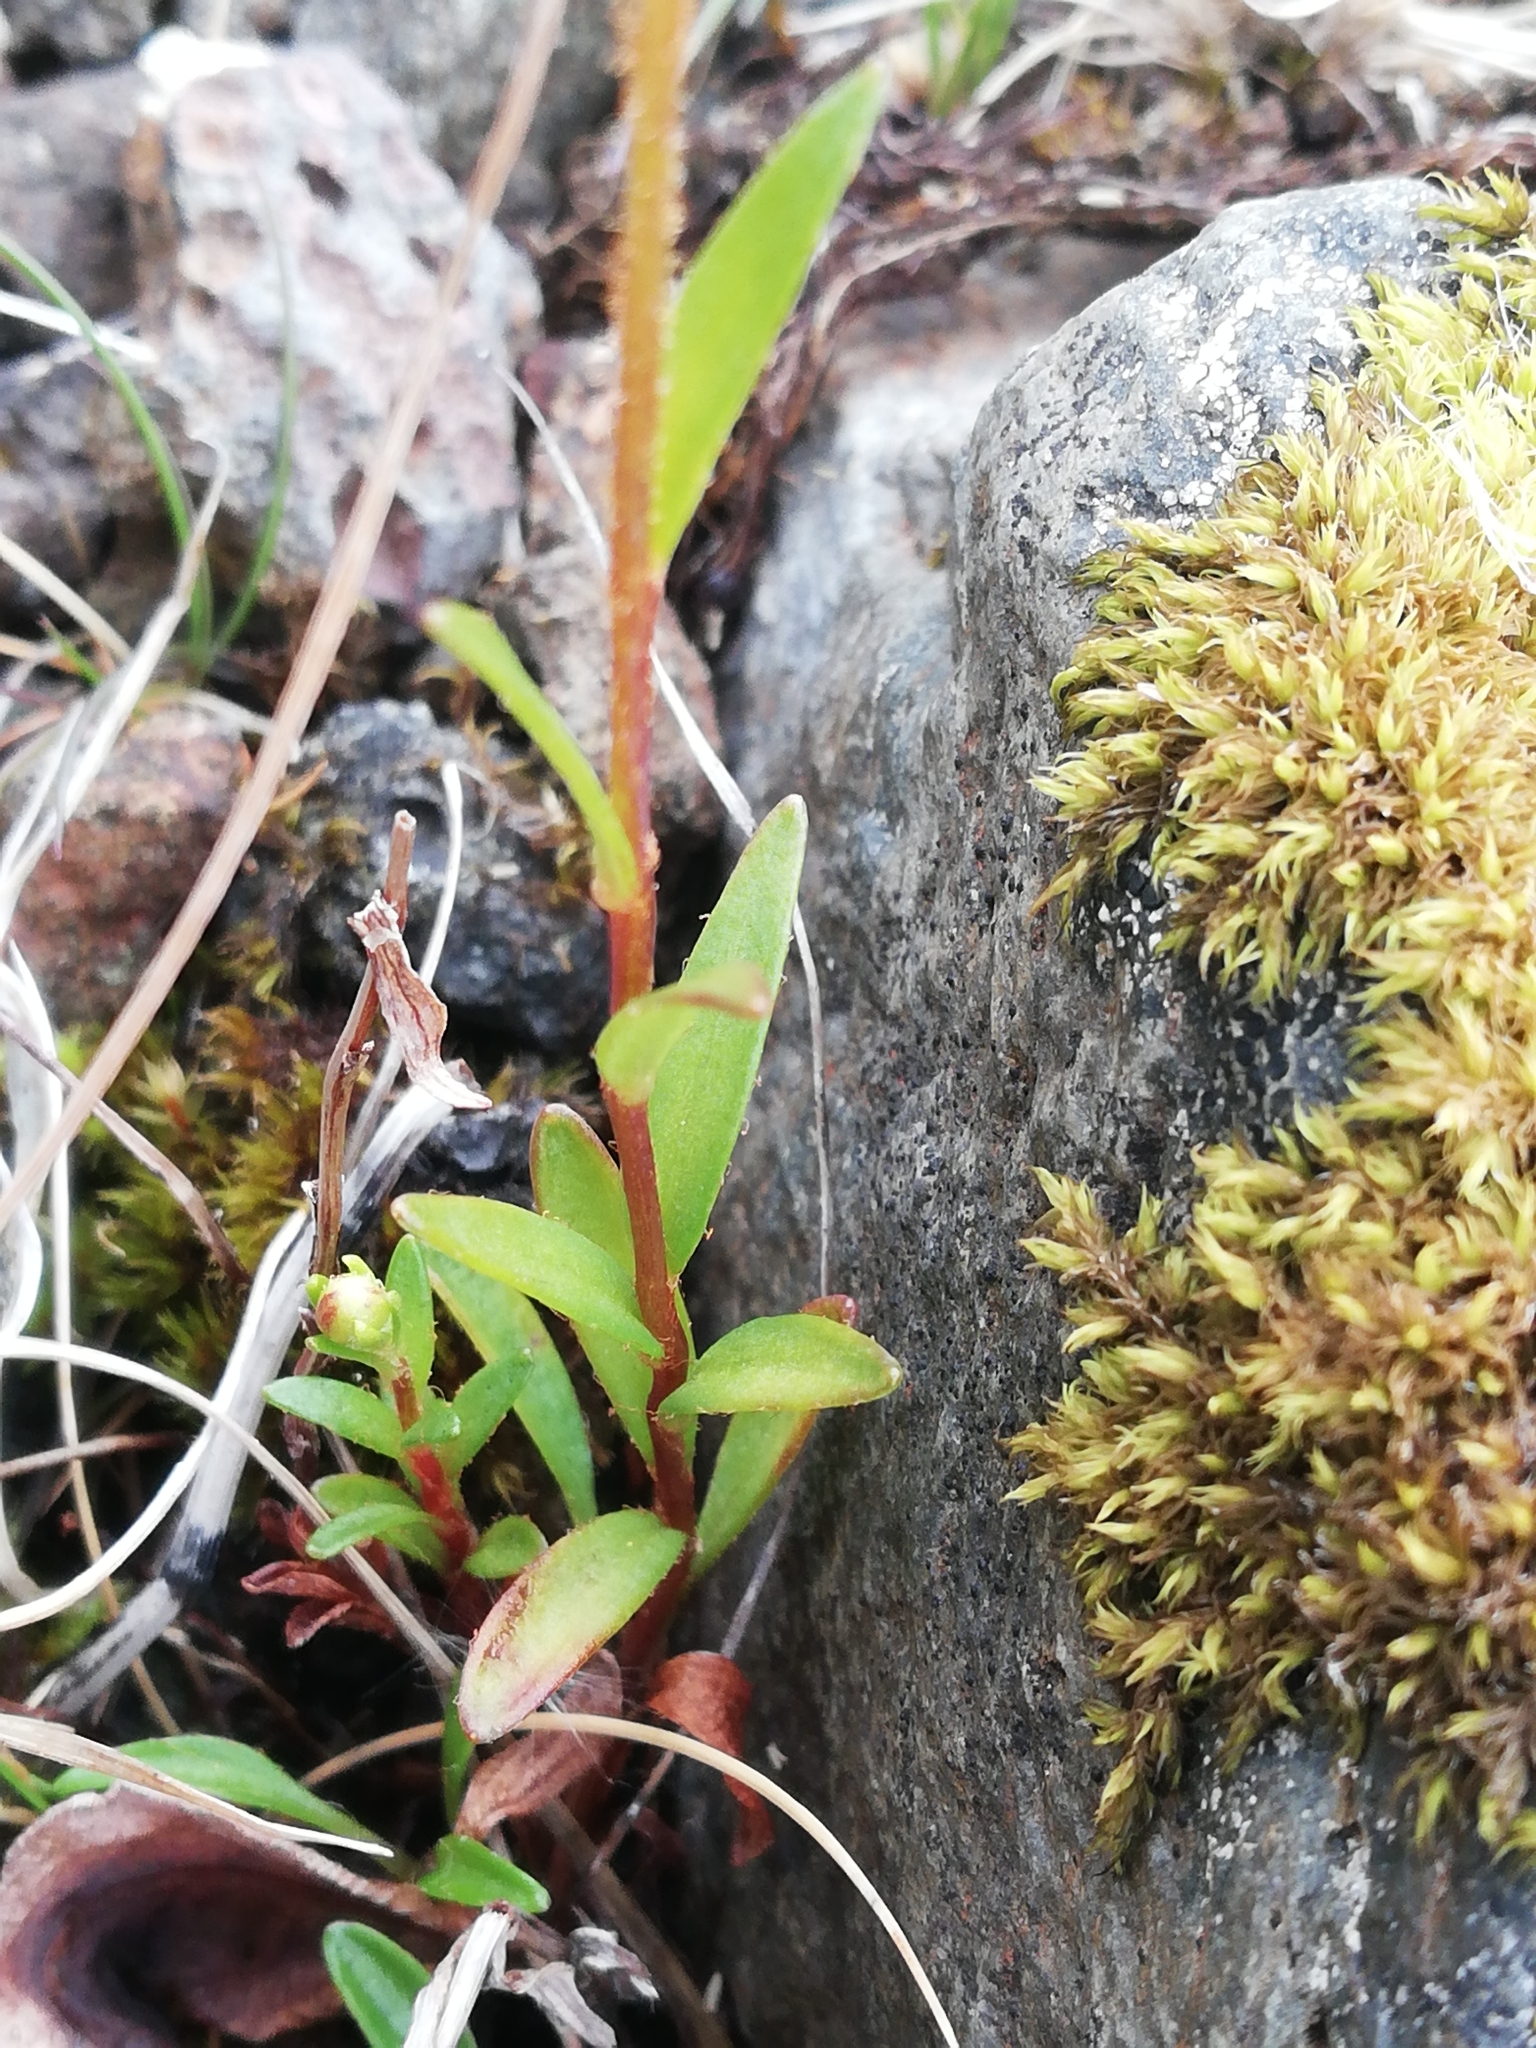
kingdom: Plantae
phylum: Tracheophyta
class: Magnoliopsida
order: Saxifragales
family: Saxifragaceae
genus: Saxifraga
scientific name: Saxifraga hirculus
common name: Yellow marsh saxifrage
